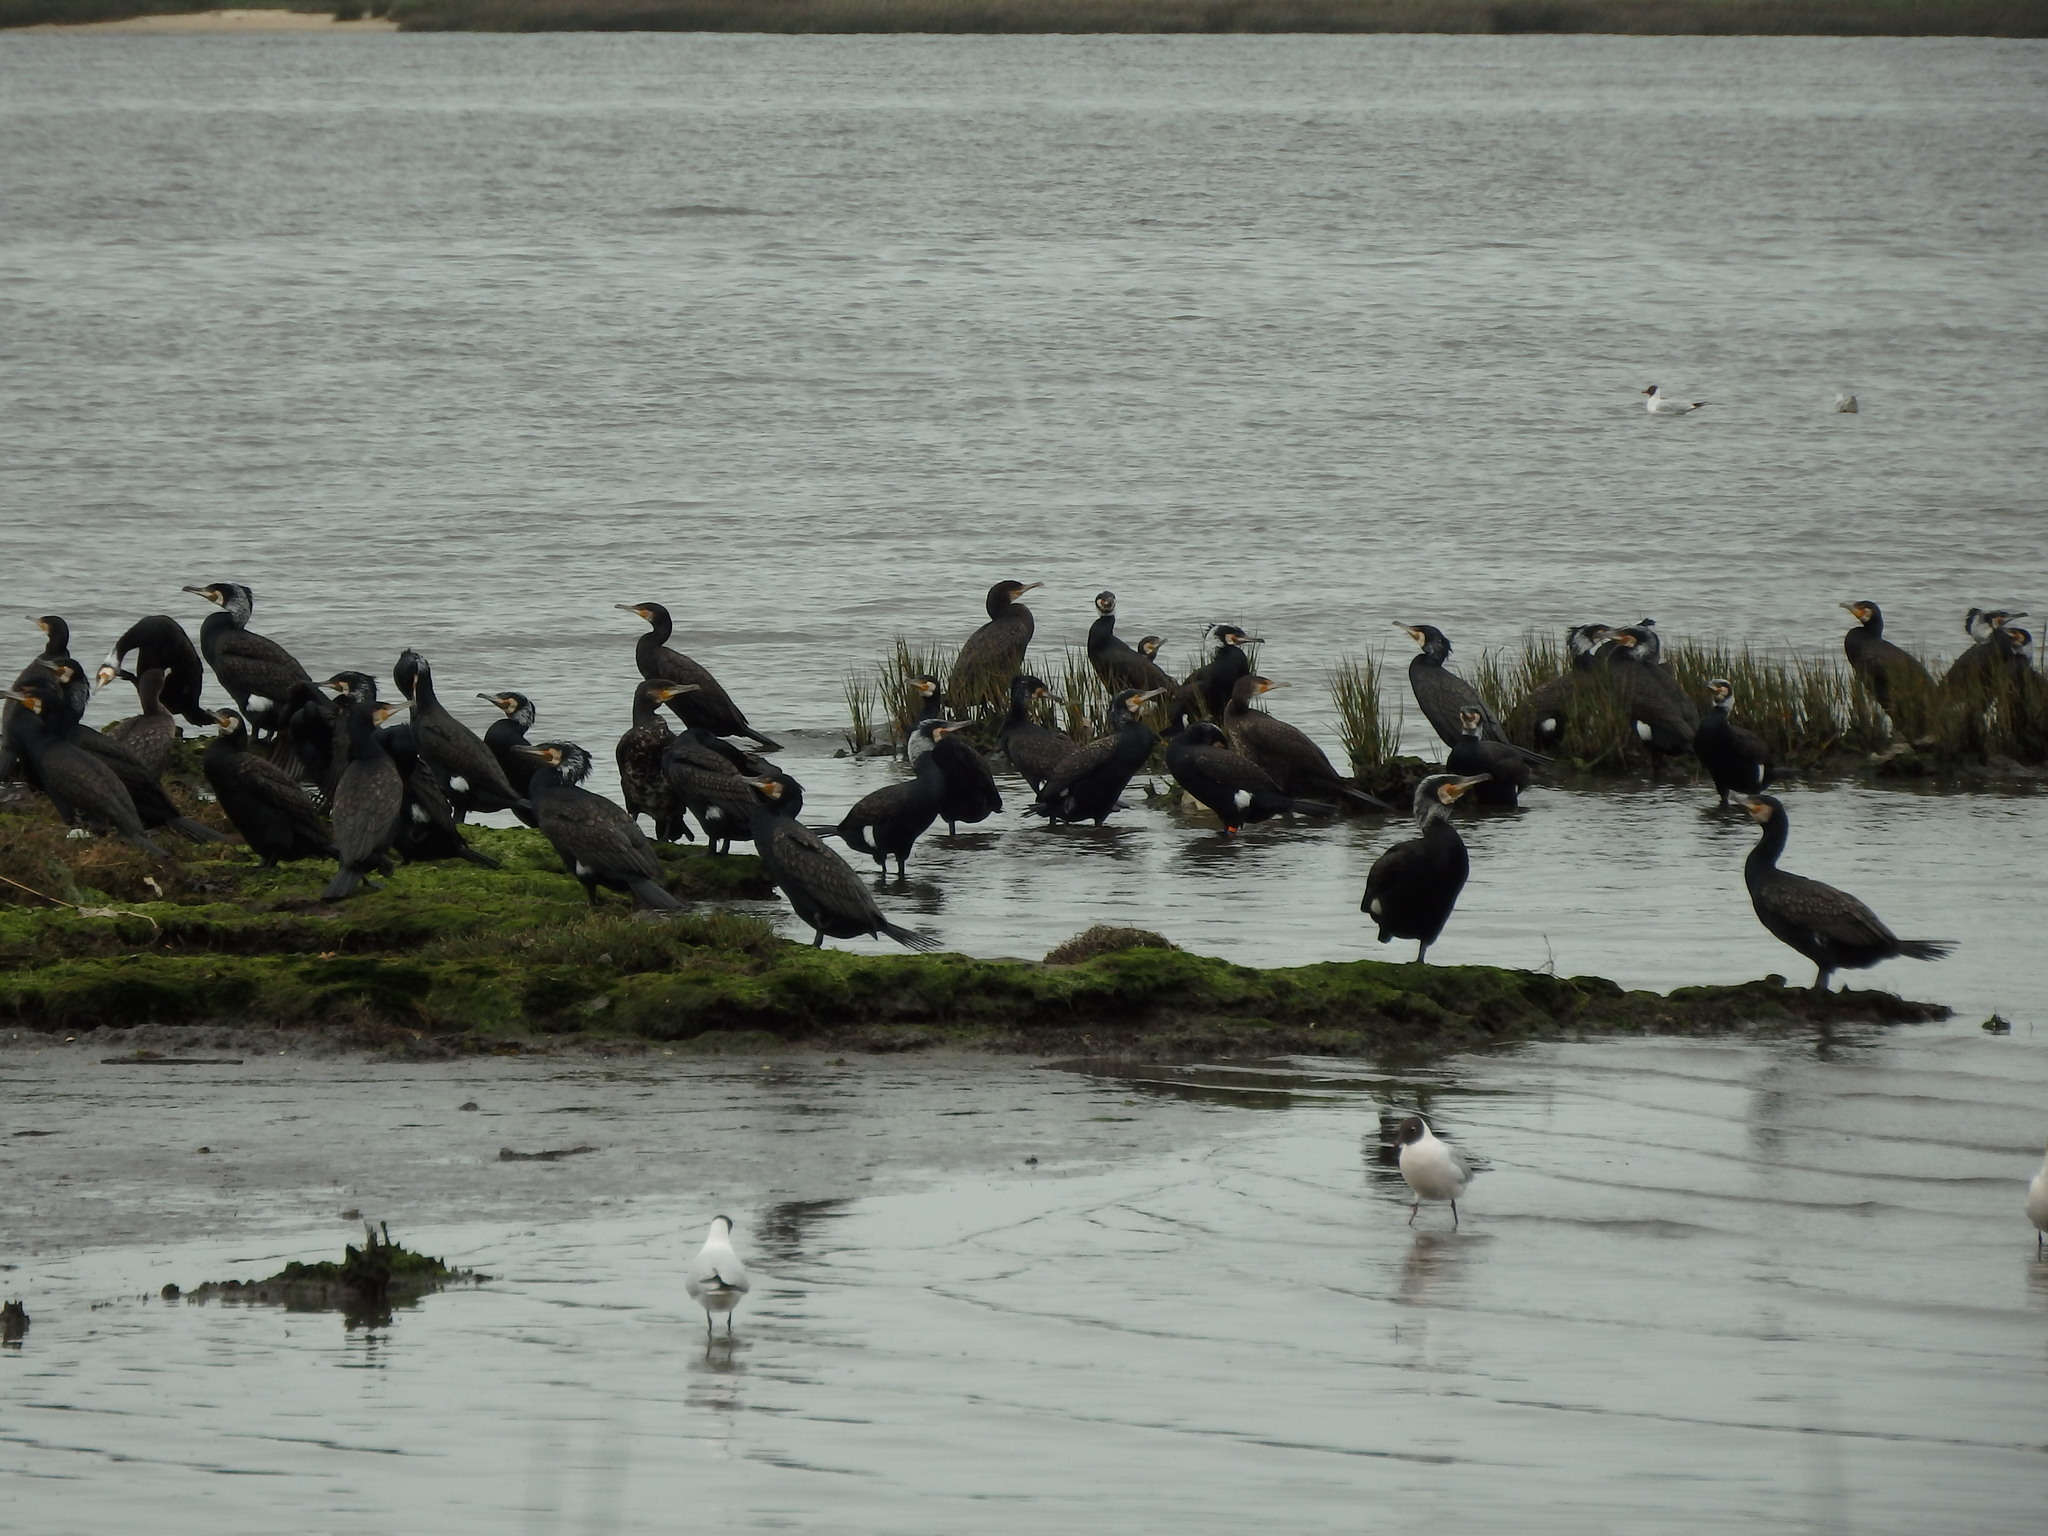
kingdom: Animalia
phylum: Chordata
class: Aves
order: Suliformes
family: Phalacrocoracidae
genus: Phalacrocorax
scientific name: Phalacrocorax carbo
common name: Great cormorant
